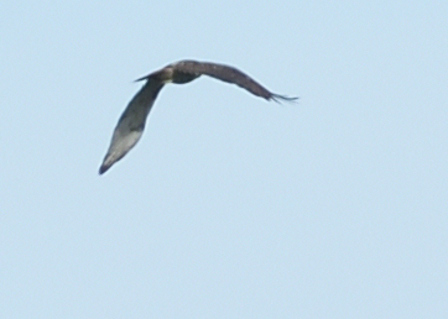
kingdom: Animalia
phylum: Chordata
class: Aves
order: Anseriformes
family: Anatidae
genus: Aix
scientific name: Aix sponsa
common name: Wood duck
